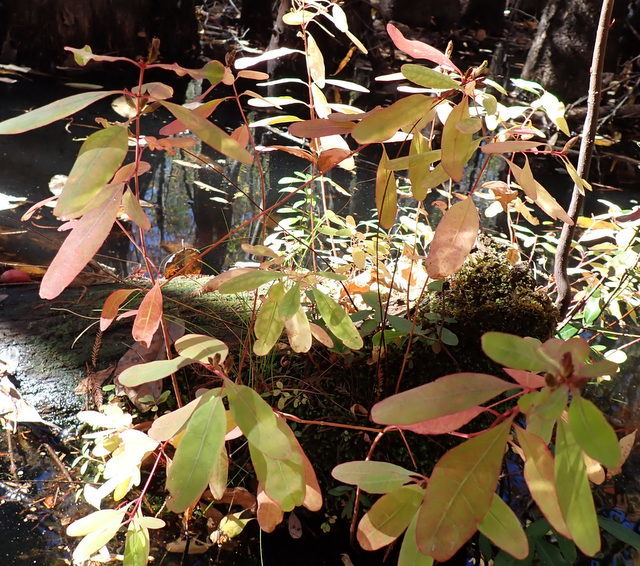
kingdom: Plantae
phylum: Tracheophyta
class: Magnoliopsida
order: Malpighiales
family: Hypericaceae
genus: Triadenum
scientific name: Triadenum walteri
